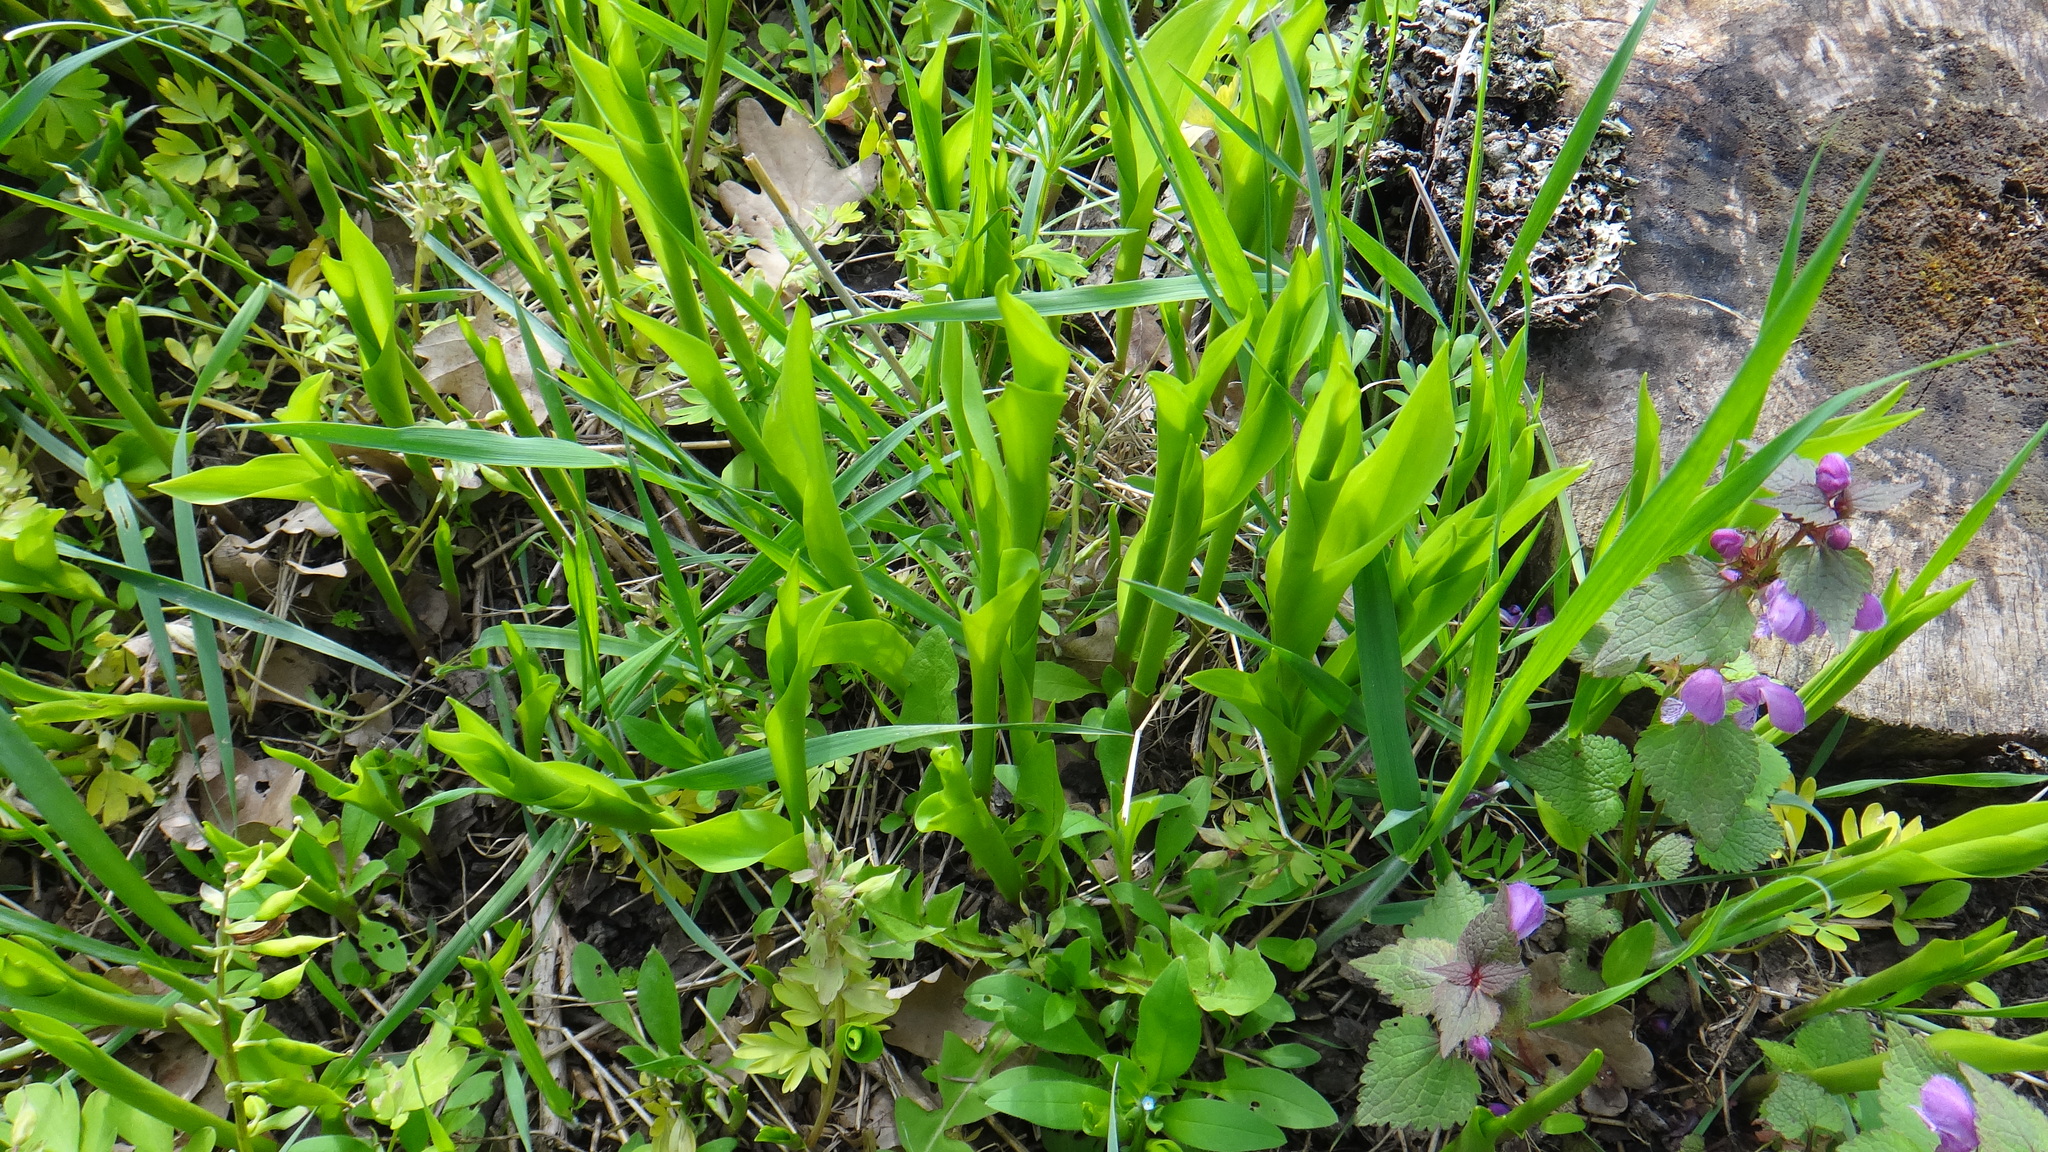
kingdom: Plantae
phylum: Tracheophyta
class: Liliopsida
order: Asparagales
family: Asparagaceae
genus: Convallaria
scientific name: Convallaria majalis
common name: Lily-of-the-valley
